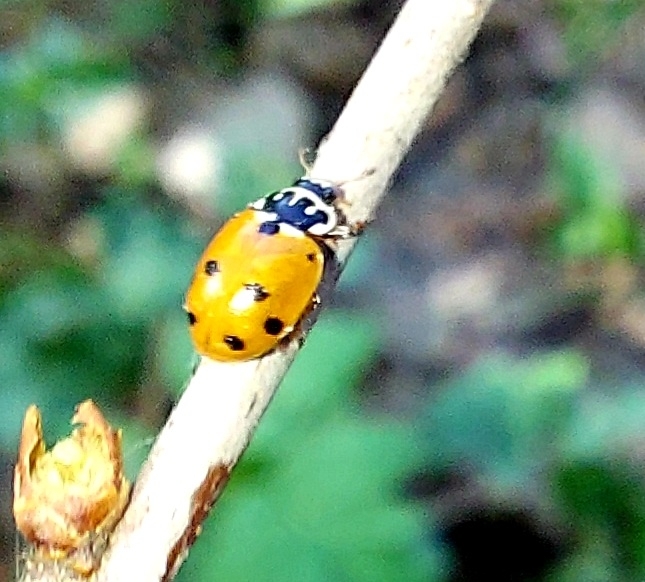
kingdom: Animalia
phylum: Arthropoda
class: Insecta
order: Coleoptera
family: Coccinellidae
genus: Hippodamia
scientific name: Hippodamia variegata
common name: Ladybird beetle
